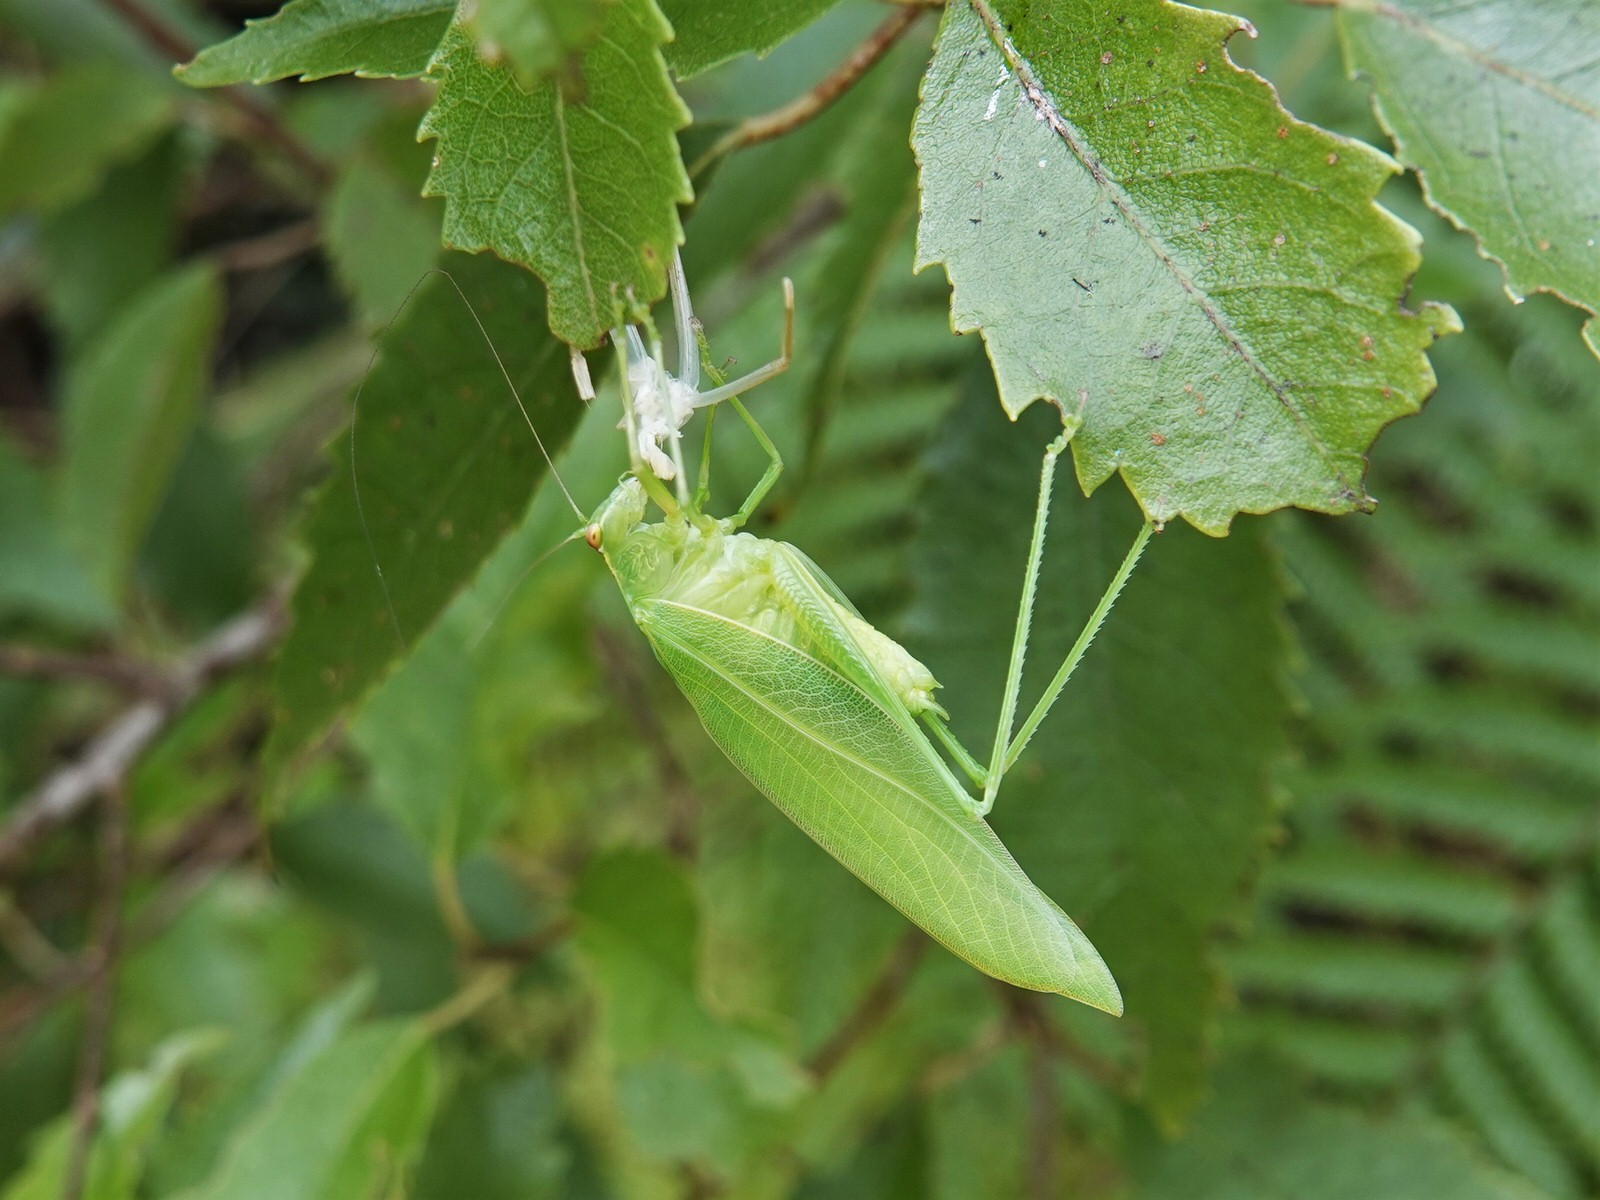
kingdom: Animalia
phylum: Arthropoda
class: Insecta
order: Orthoptera
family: Tettigoniidae
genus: Caedicia
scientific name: Caedicia simplex
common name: Common garden katydid
